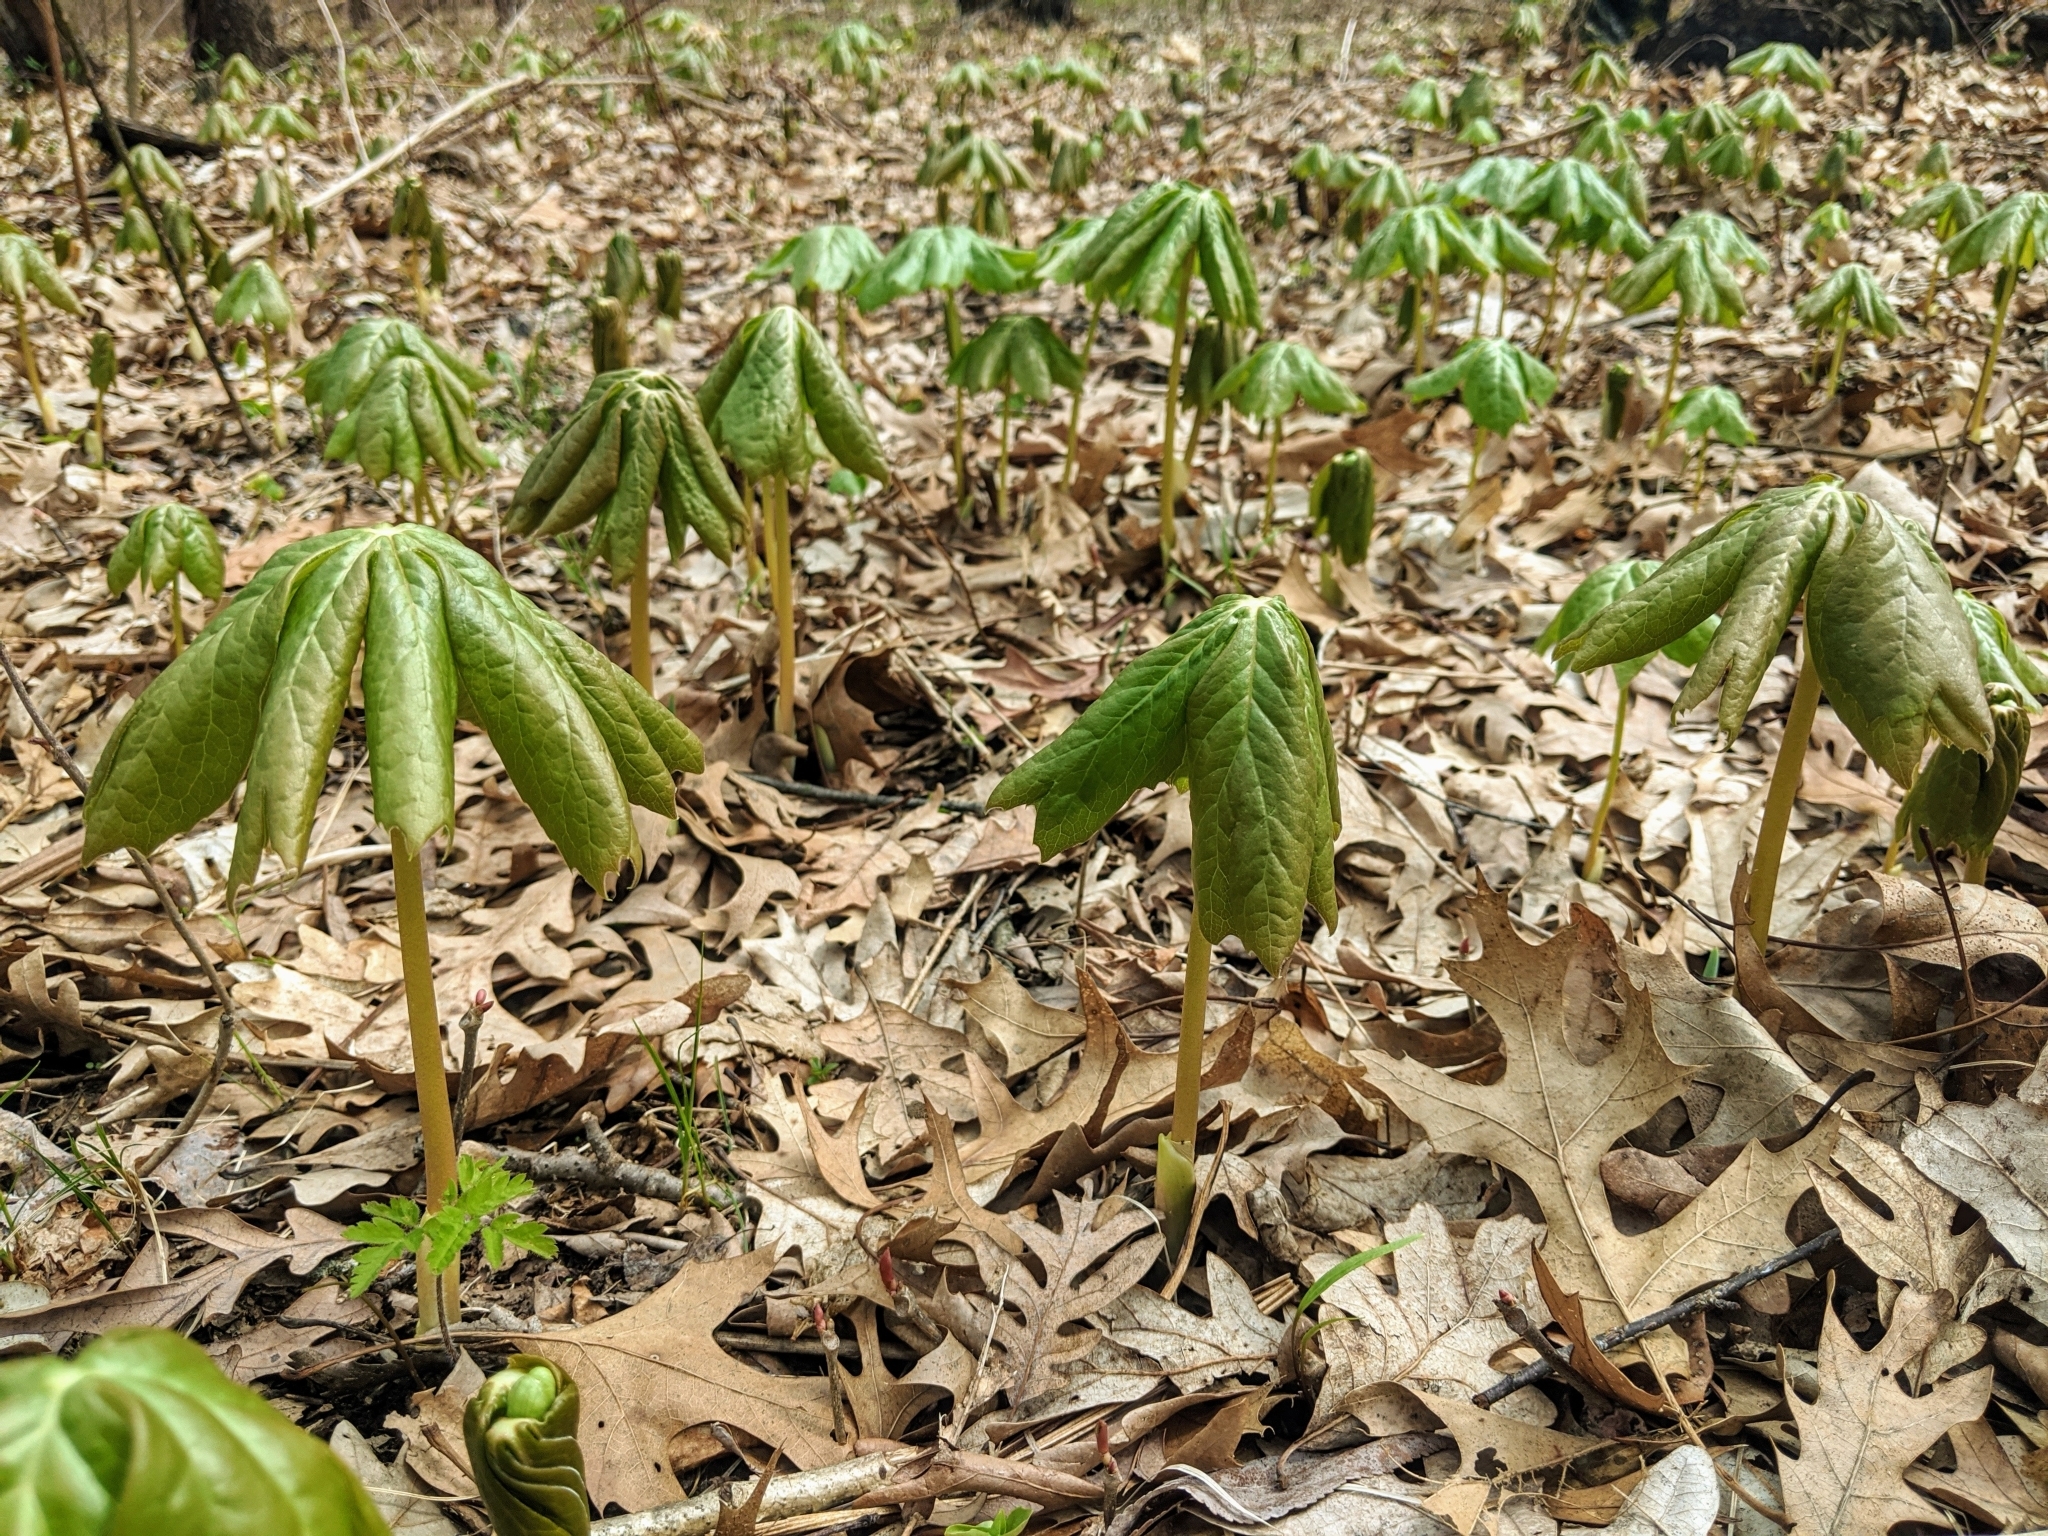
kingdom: Plantae
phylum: Tracheophyta
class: Magnoliopsida
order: Ranunculales
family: Berberidaceae
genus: Podophyllum
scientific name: Podophyllum peltatum
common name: Wild mandrake
